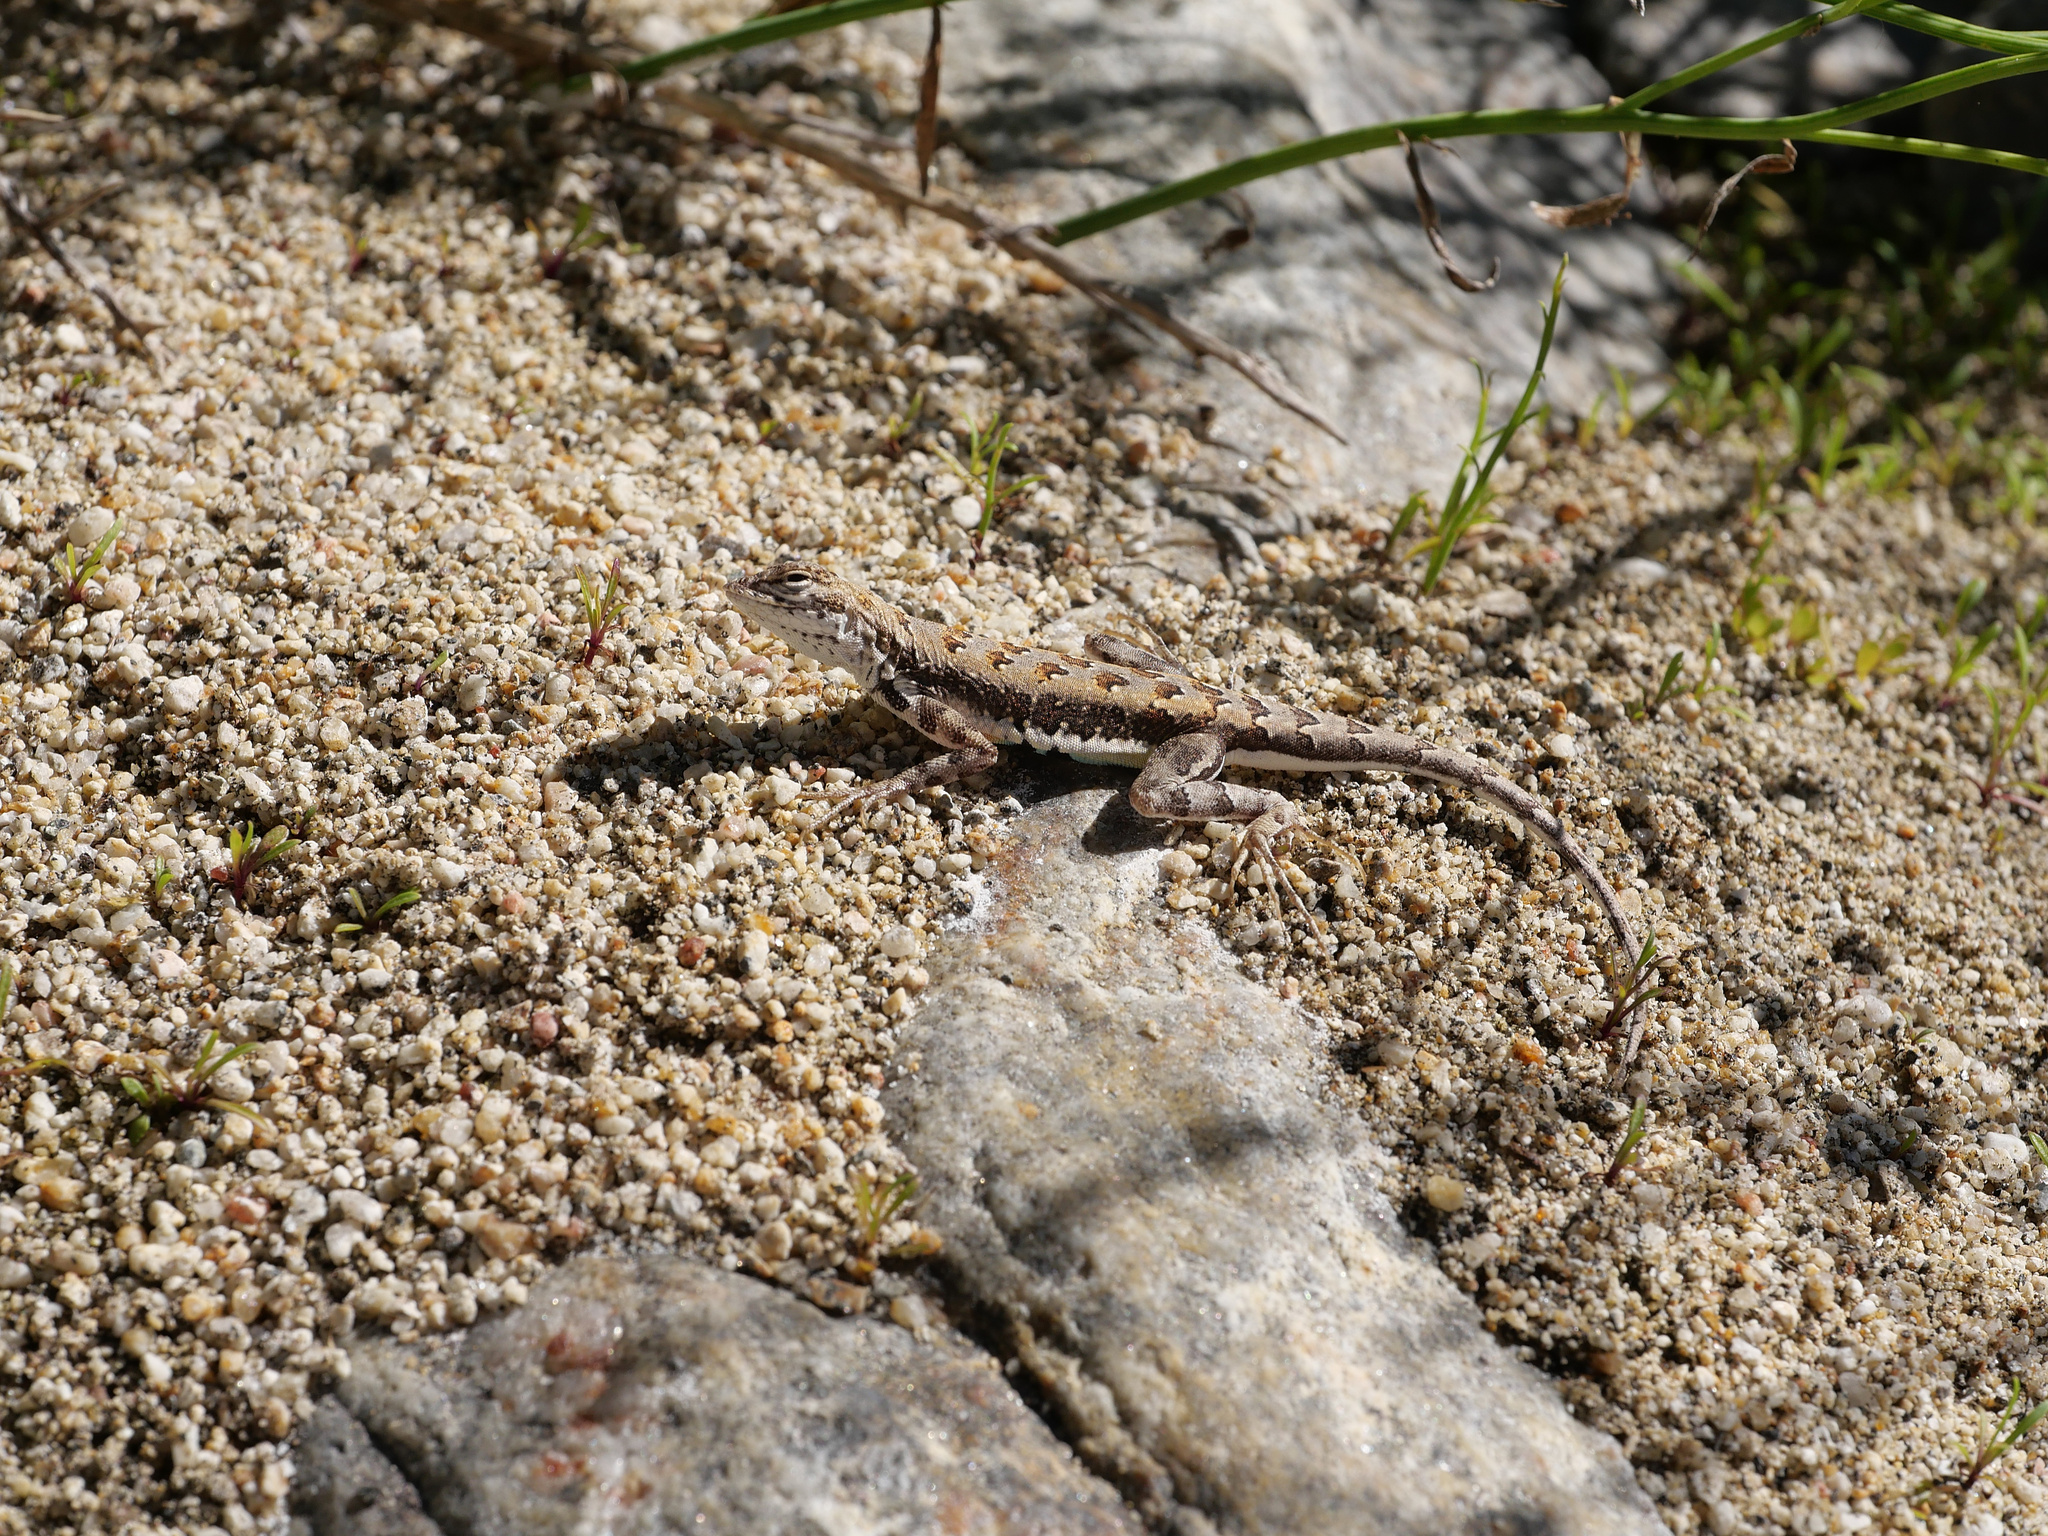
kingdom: Animalia
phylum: Chordata
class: Squamata
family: Phrynosomatidae
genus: Callisaurus
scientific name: Callisaurus draconoides
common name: Zebra-tailed lizard
